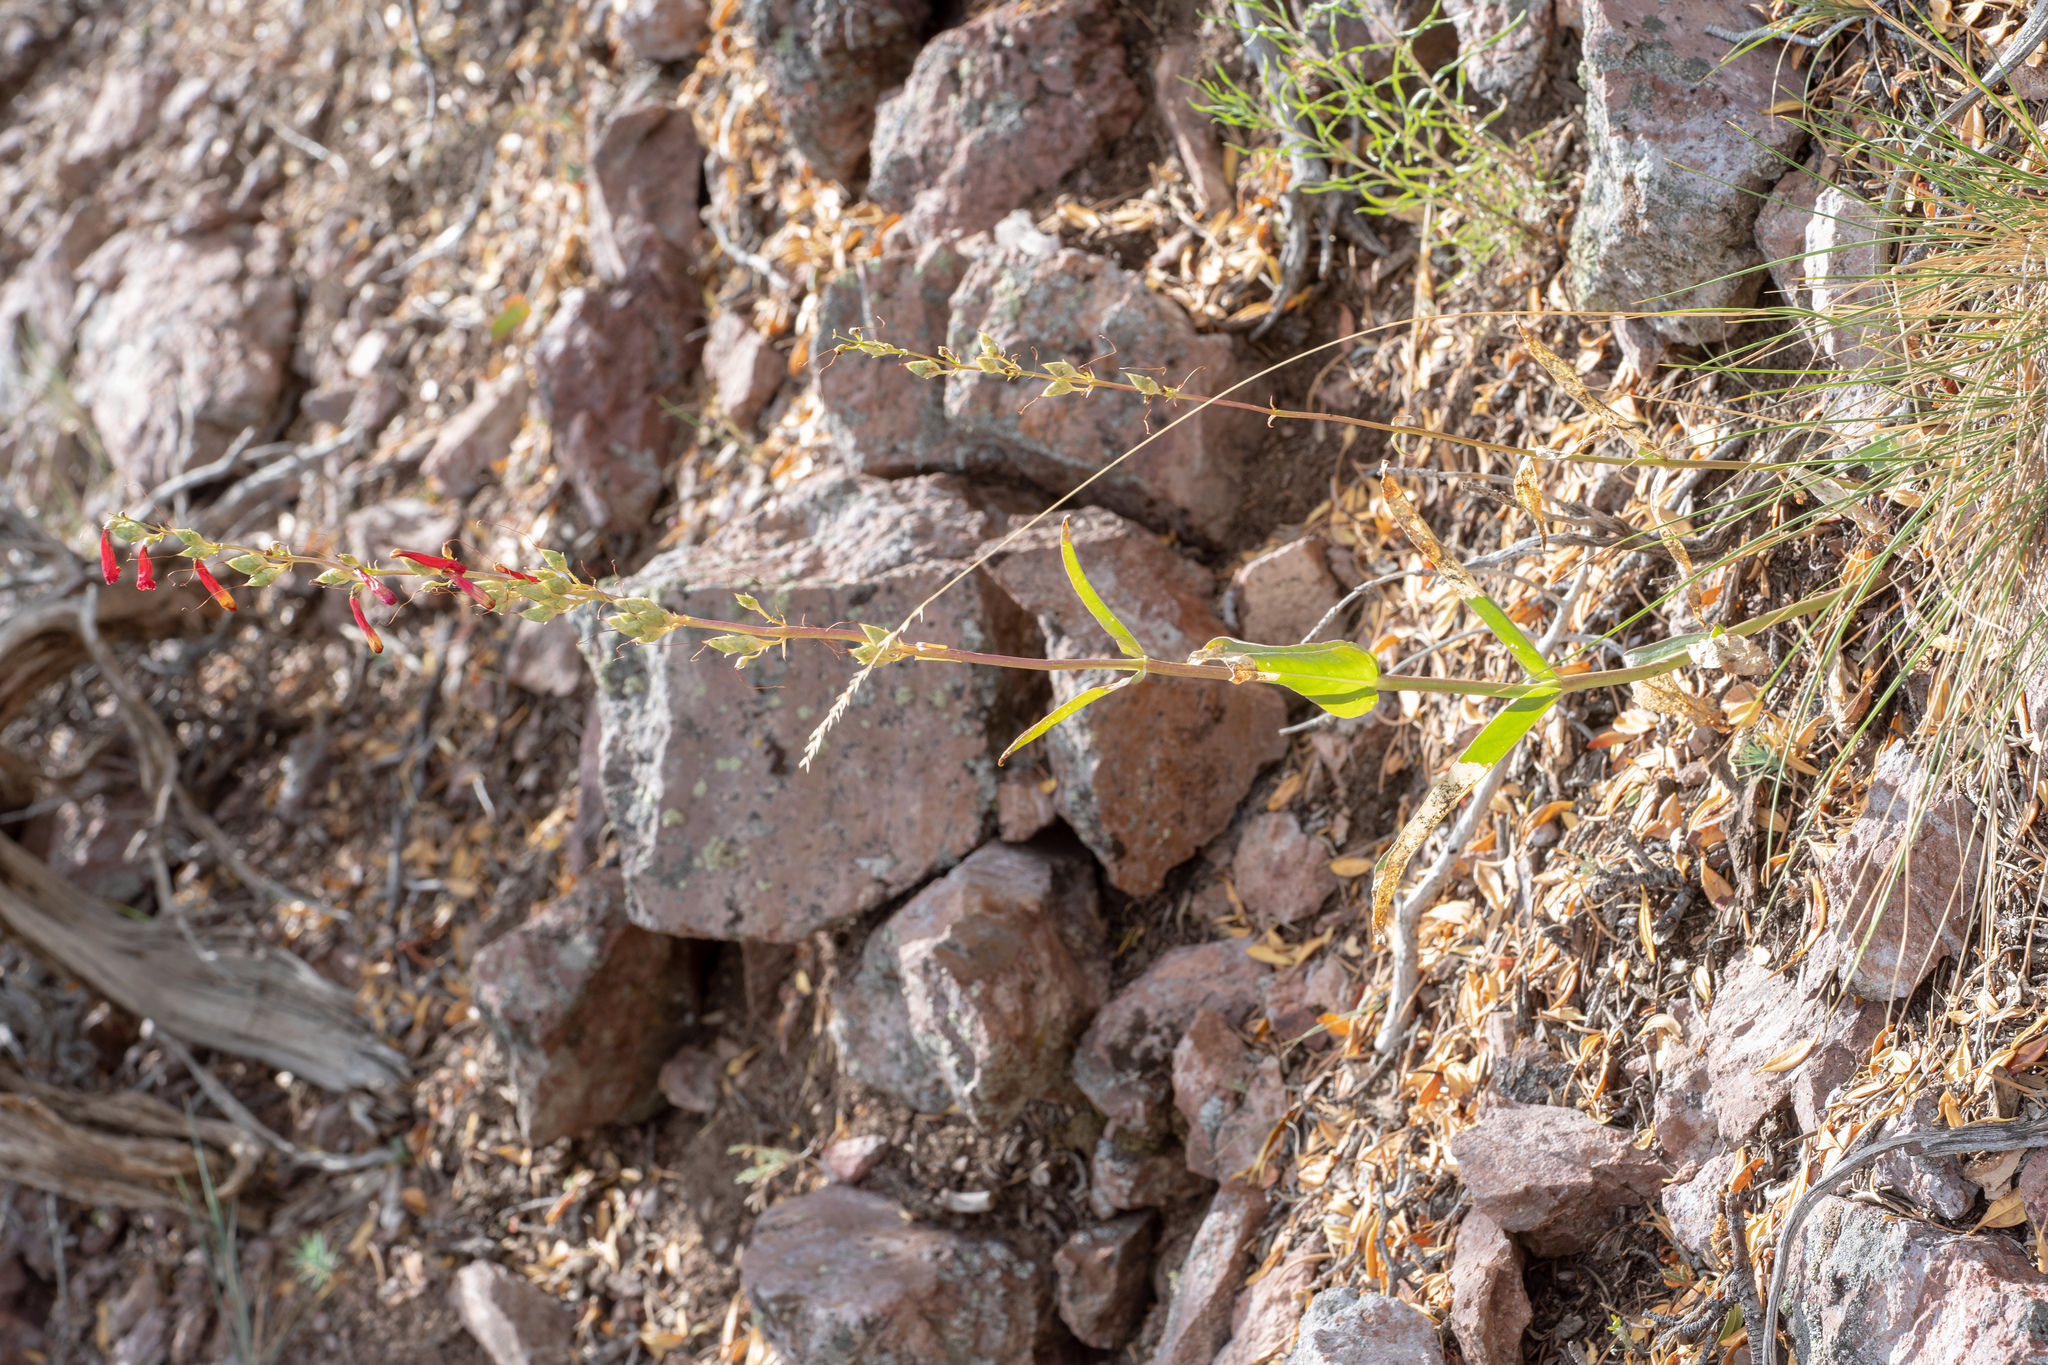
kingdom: Plantae
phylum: Tracheophyta
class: Magnoliopsida
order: Lamiales
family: Plantaginaceae
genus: Penstemon
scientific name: Penstemon eatonii
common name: Eaton's penstemon
